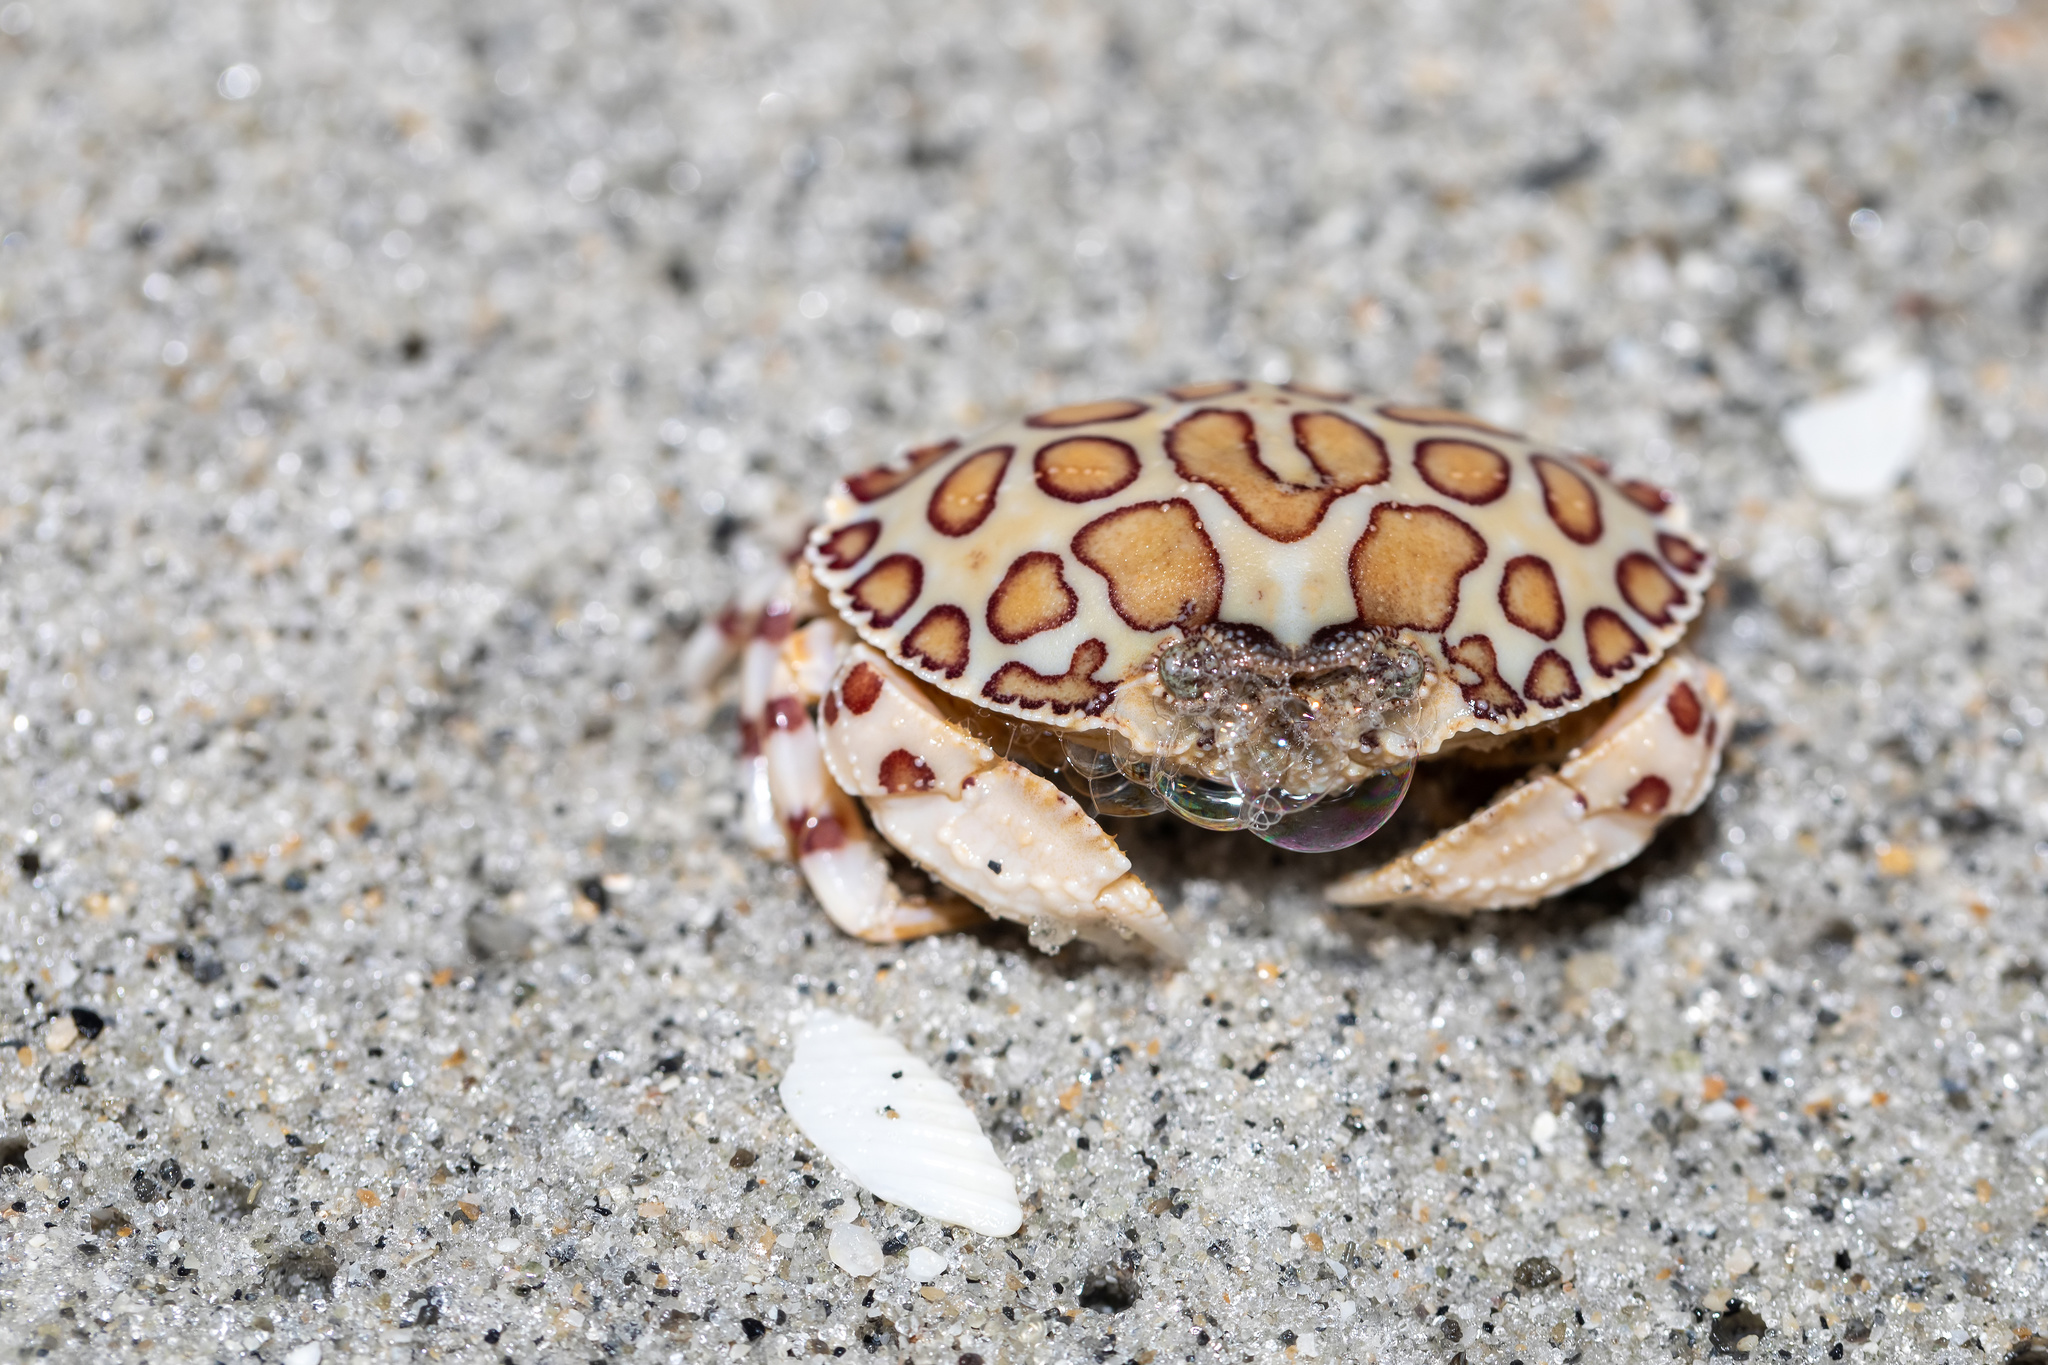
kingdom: Animalia
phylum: Arthropoda
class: Malacostraca
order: Decapoda
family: Aethridae
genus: Hepatus
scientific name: Hepatus epheliticus
